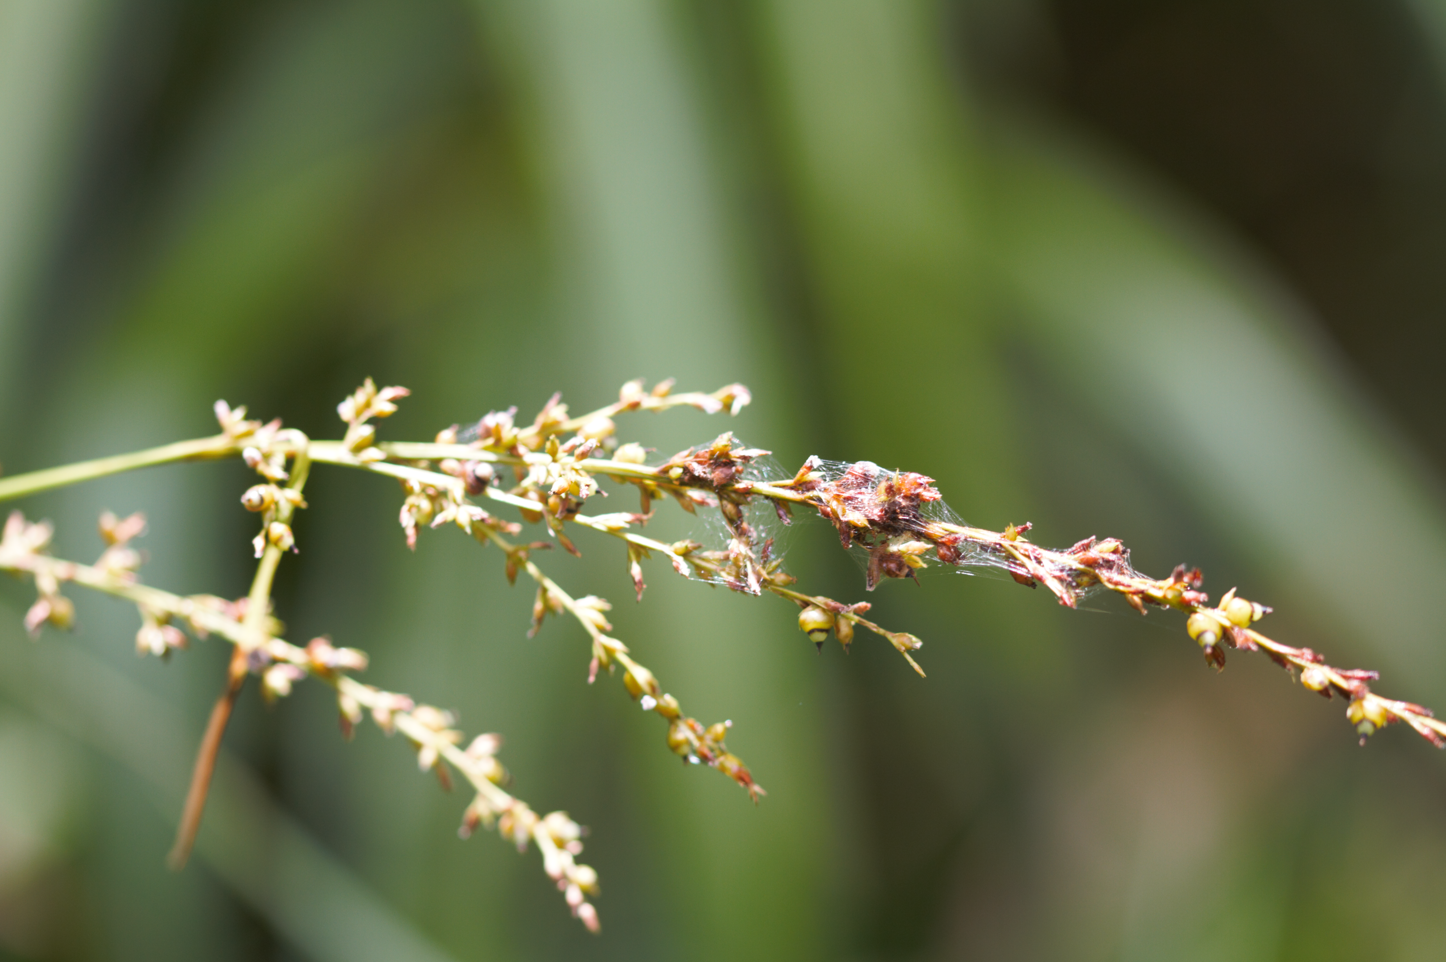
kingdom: Plantae
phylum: Tracheophyta
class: Liliopsida
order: Poales
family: Cyperaceae
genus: Scleria
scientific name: Scleria mitis
